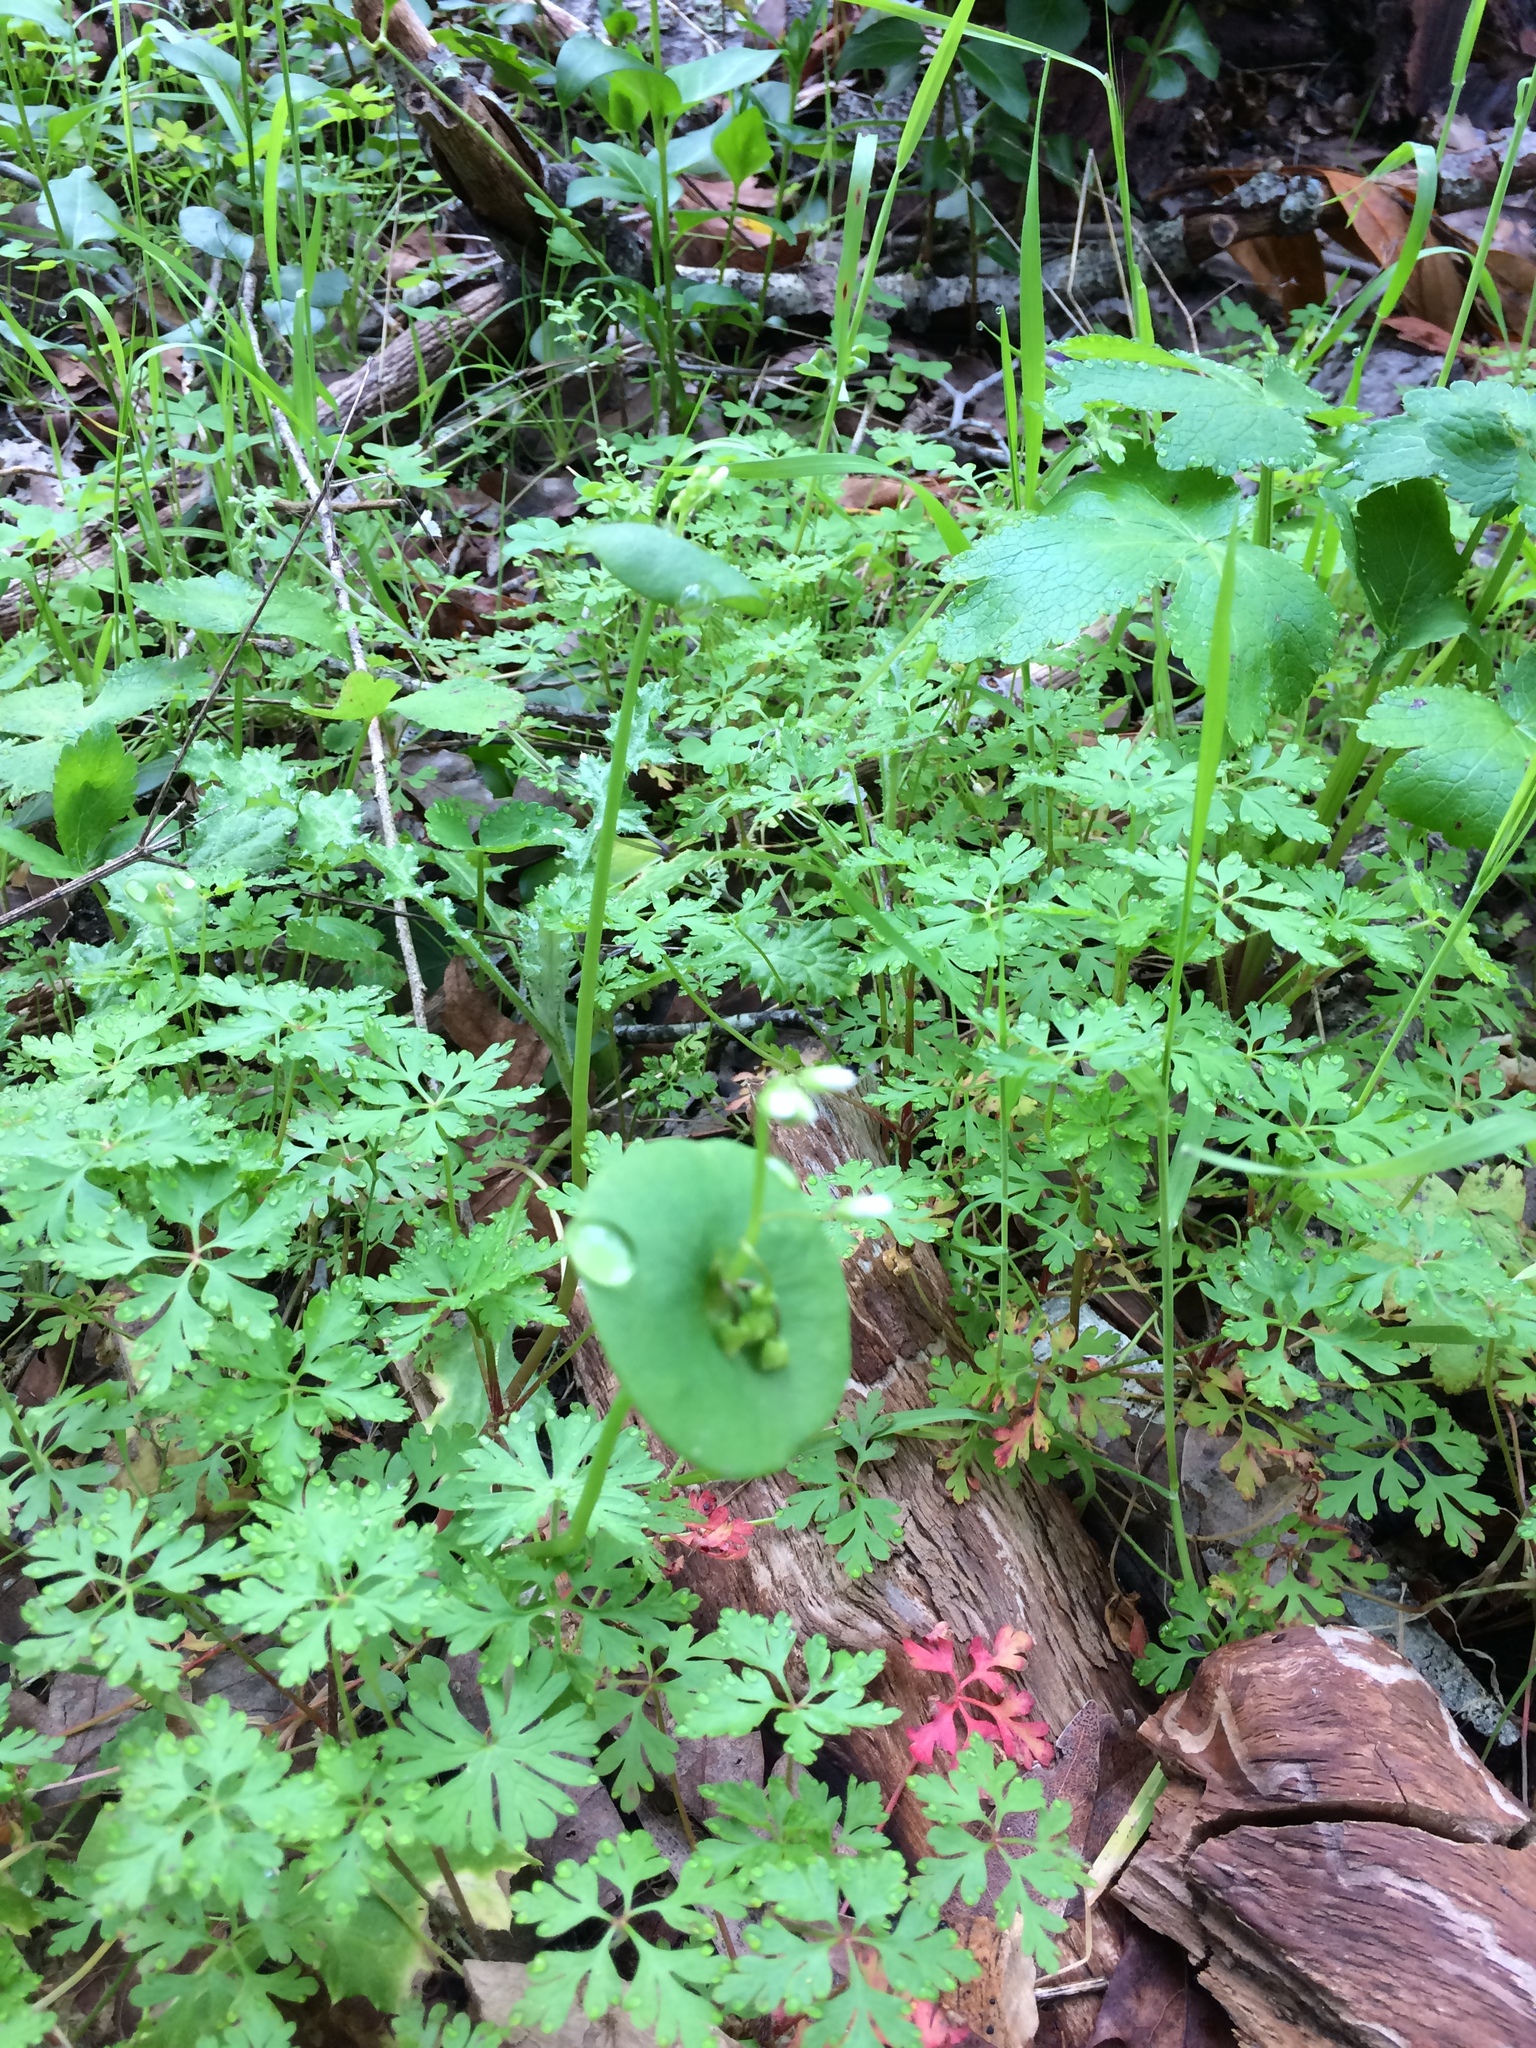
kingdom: Plantae
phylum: Tracheophyta
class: Magnoliopsida
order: Caryophyllales
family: Montiaceae
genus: Claytonia
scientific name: Claytonia perfoliata
